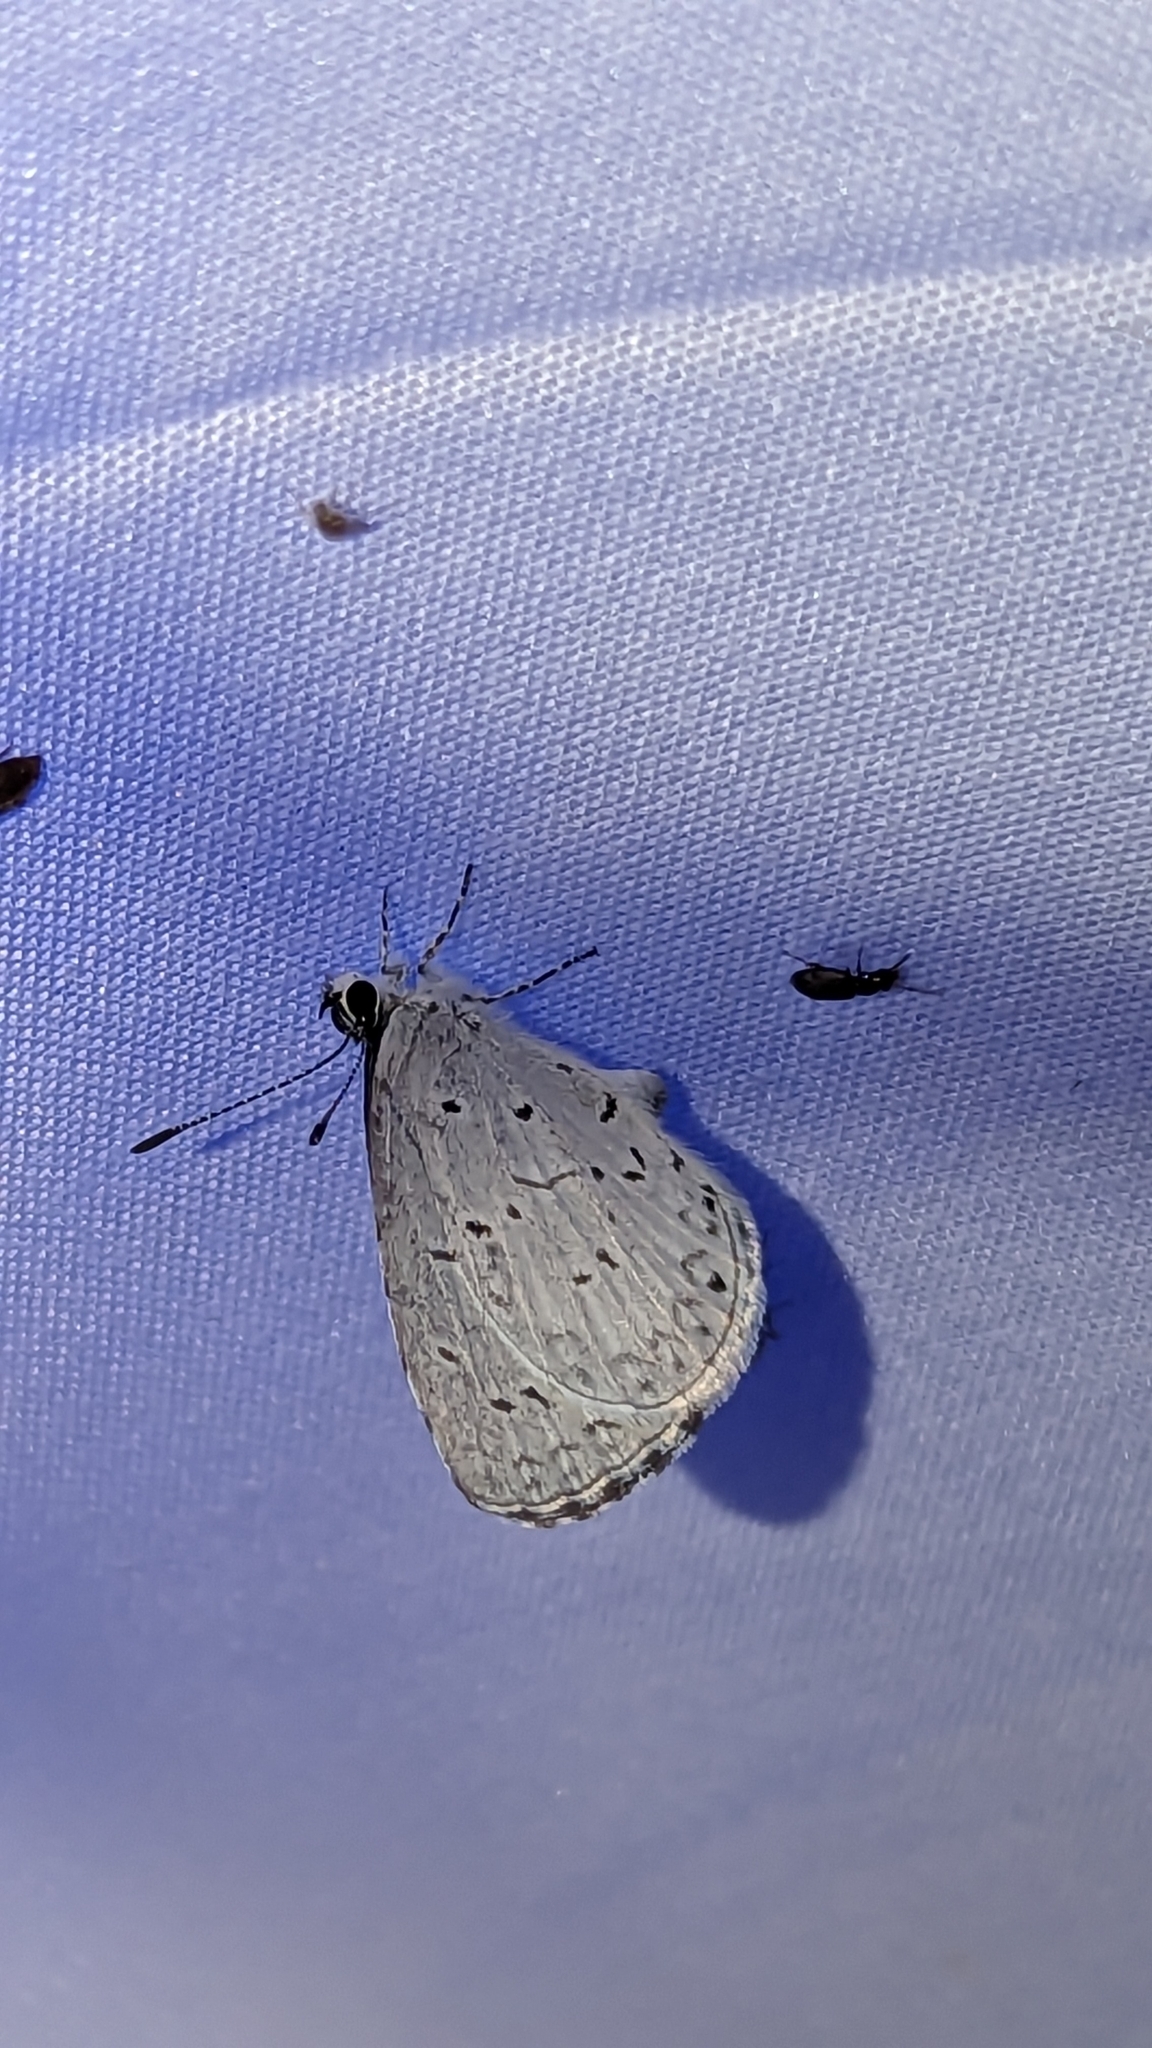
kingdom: Animalia
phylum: Arthropoda
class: Insecta
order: Lepidoptera
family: Lycaenidae
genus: Cyaniris
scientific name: Cyaniris neglecta
